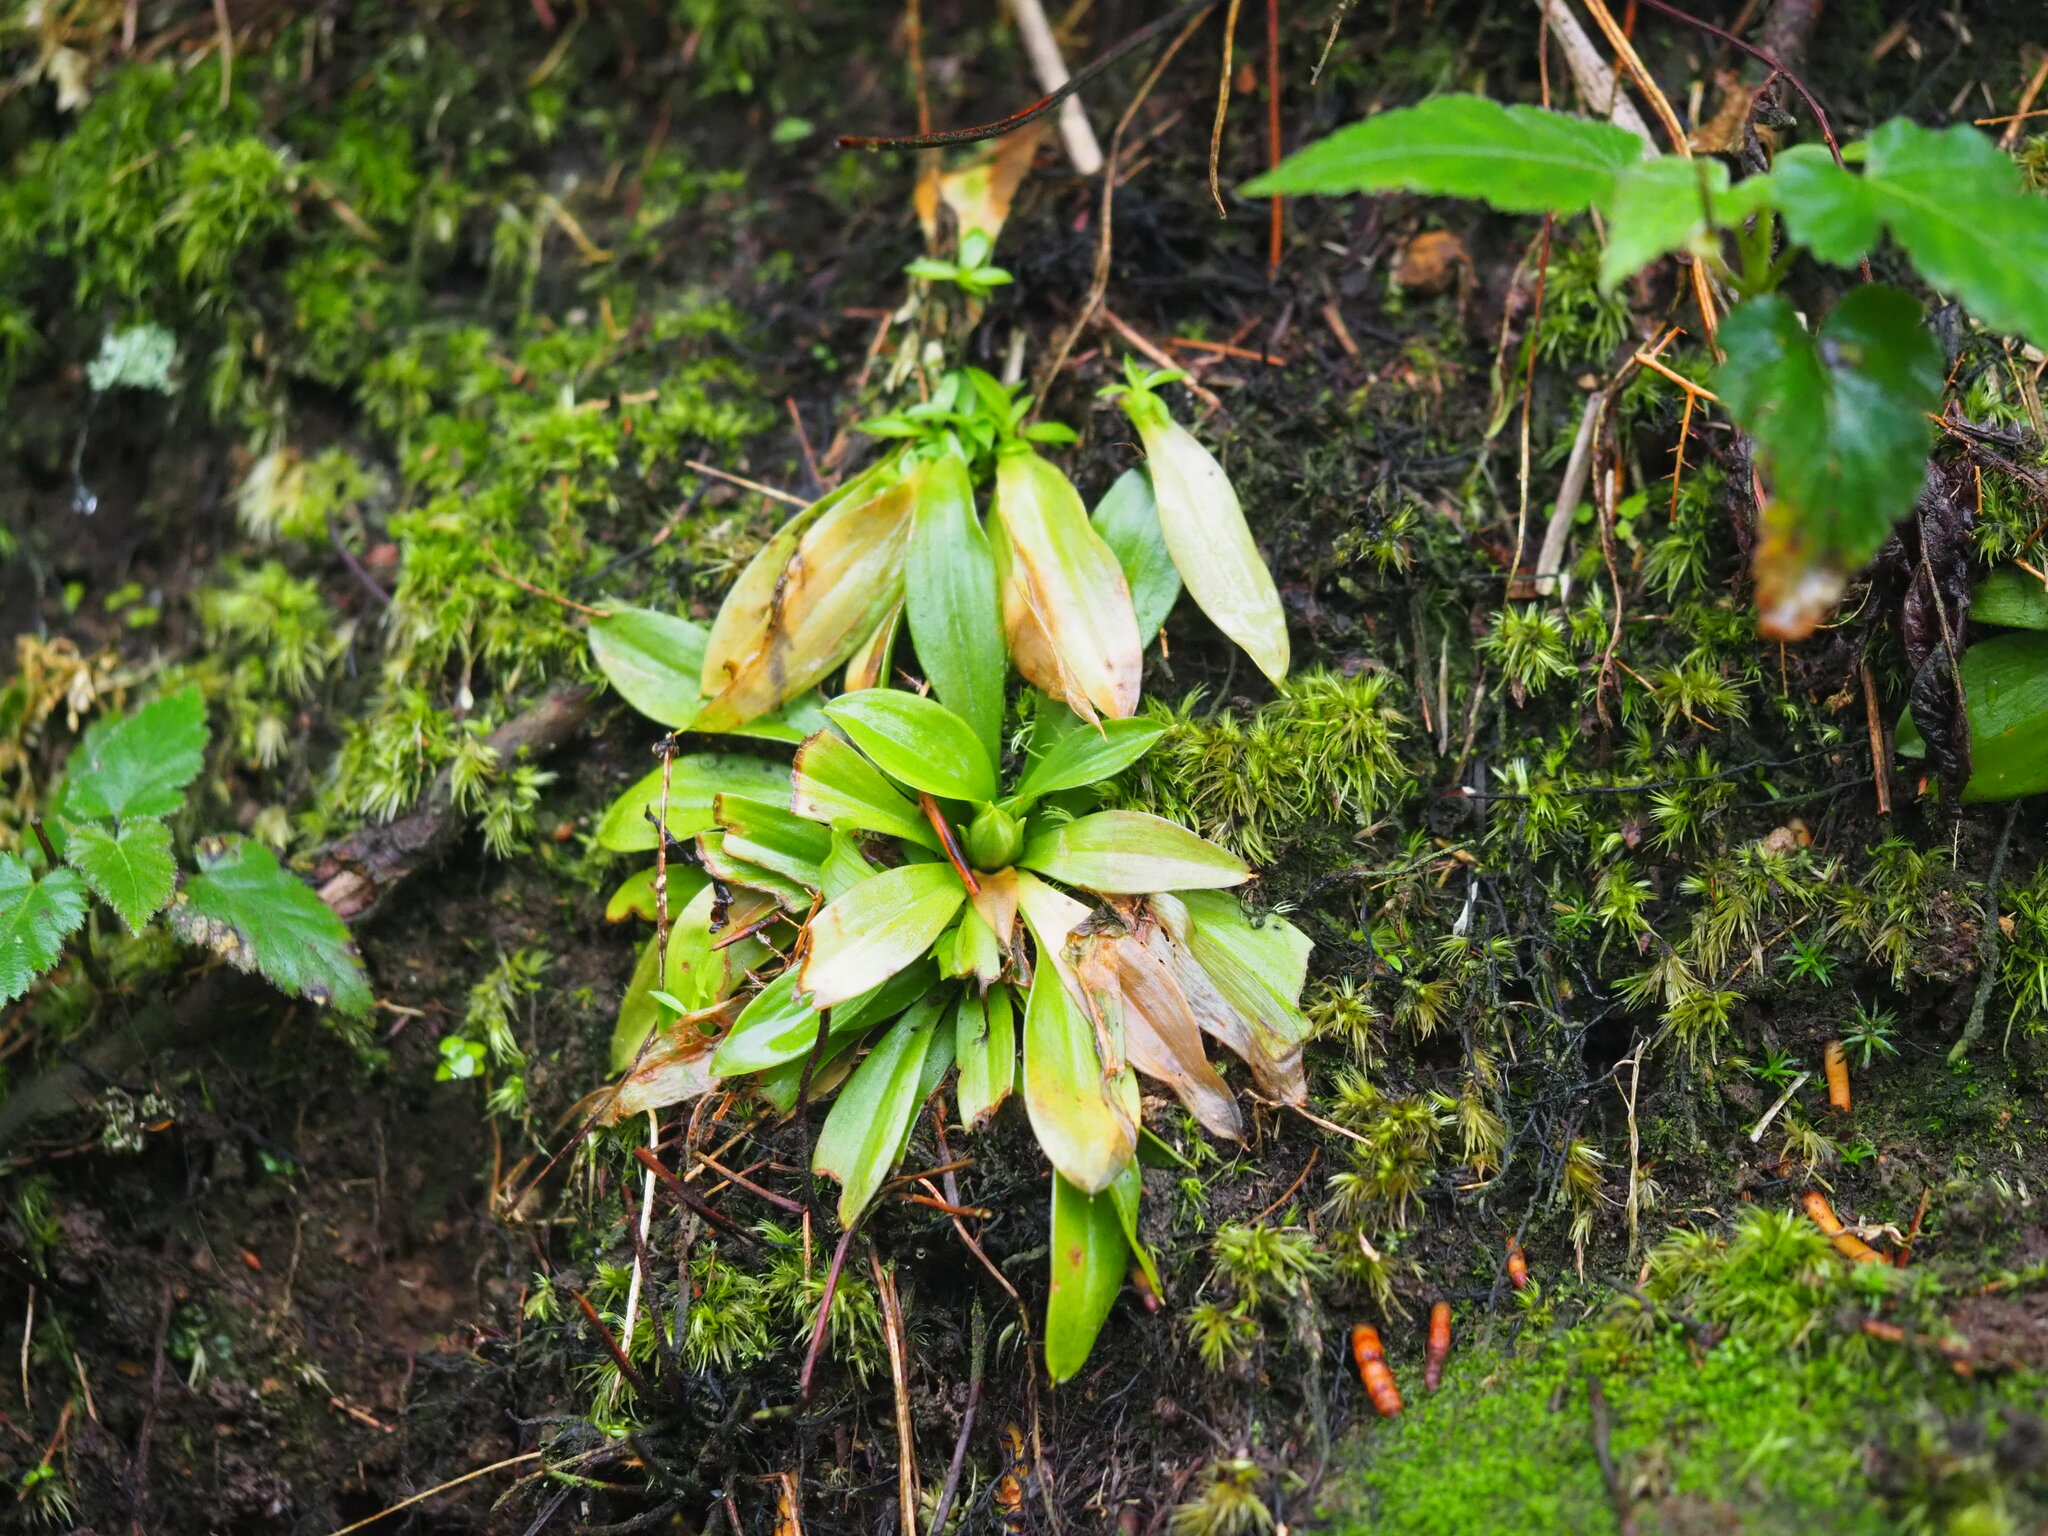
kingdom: Plantae
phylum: Tracheophyta
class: Liliopsida
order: Liliales
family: Melanthiaceae
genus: Helonias
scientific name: Helonias umbellata
